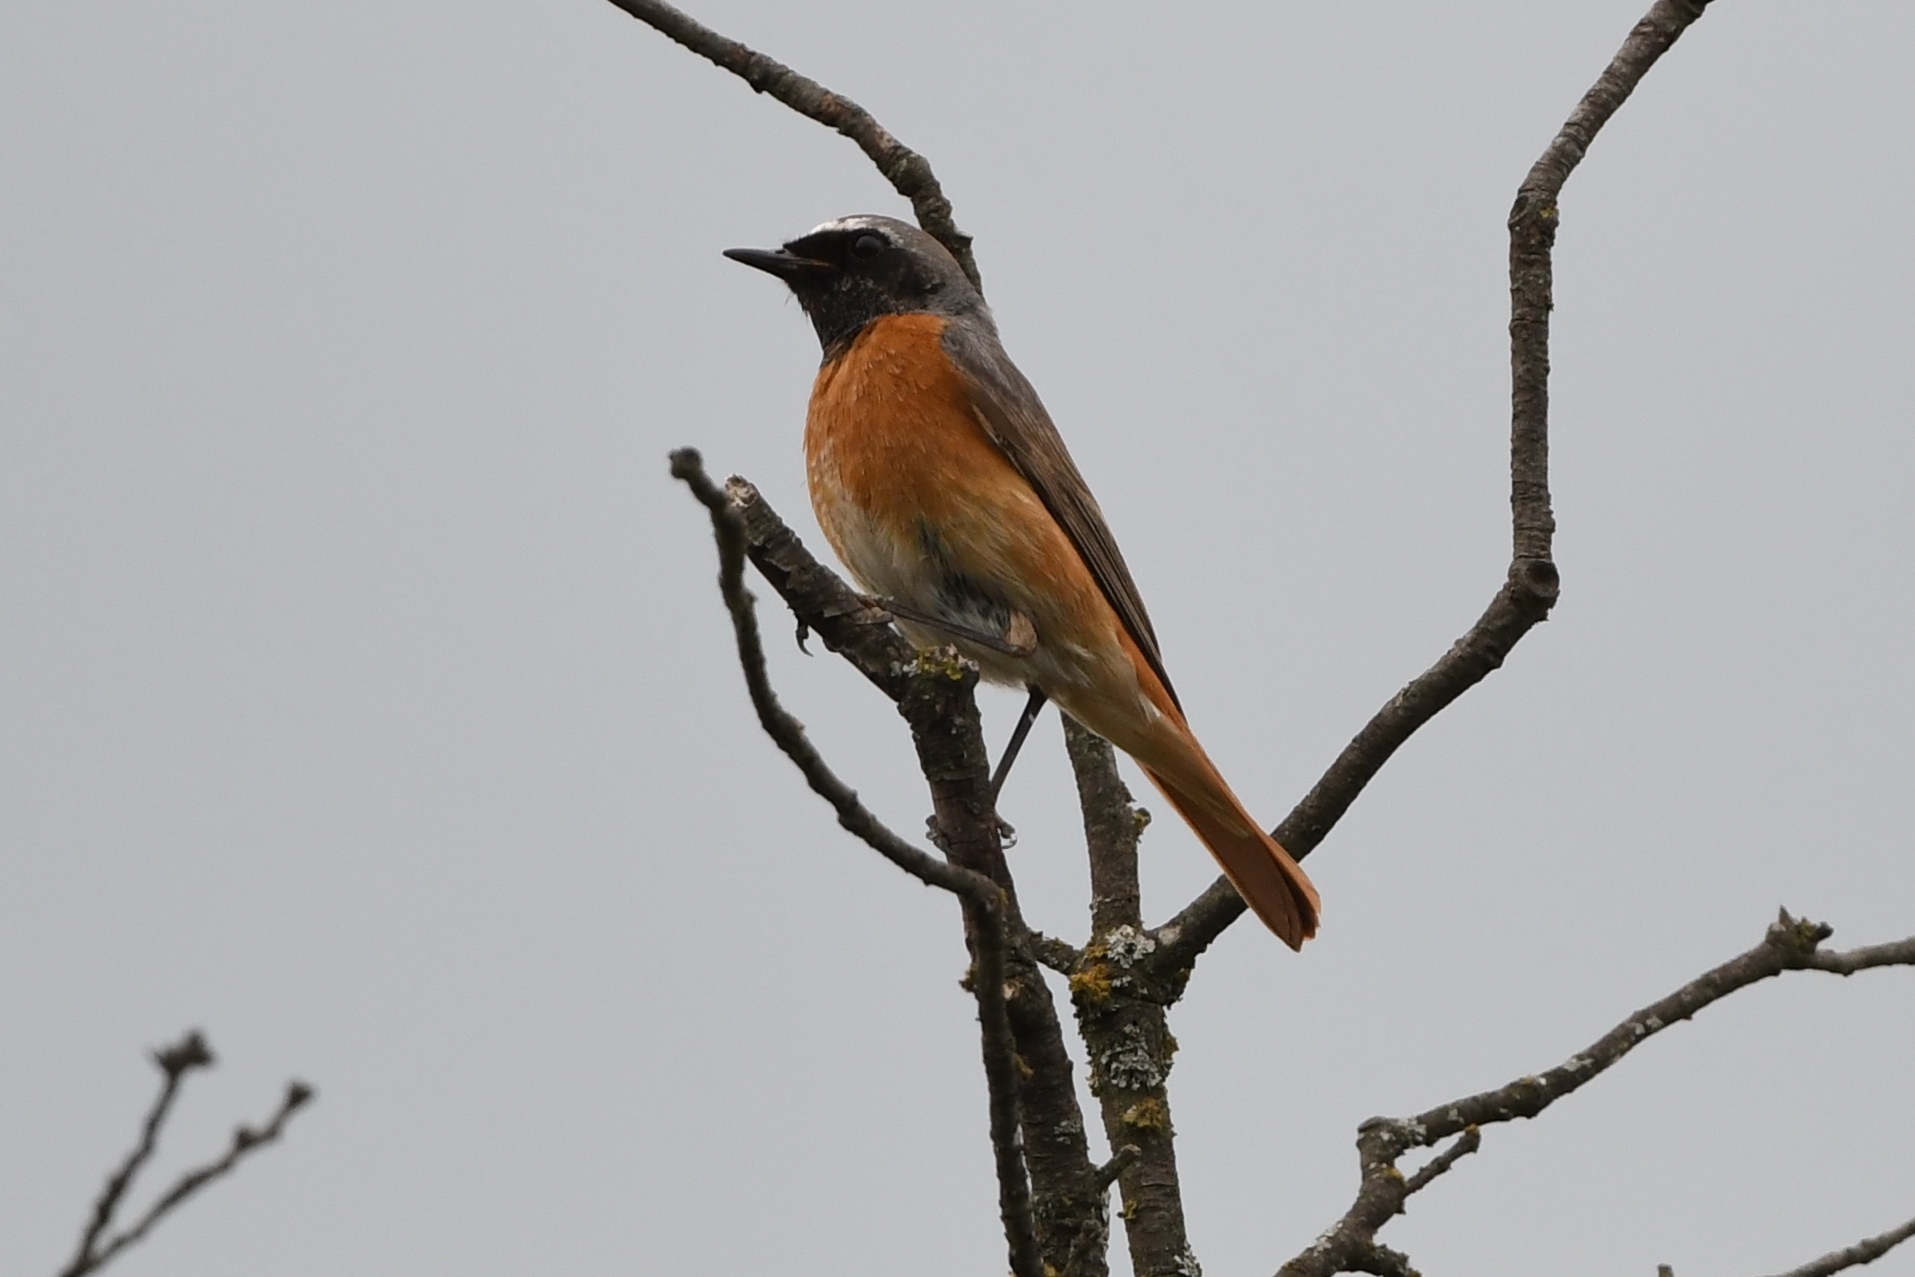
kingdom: Animalia
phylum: Chordata
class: Aves
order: Passeriformes
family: Muscicapidae
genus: Phoenicurus
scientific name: Phoenicurus phoenicurus
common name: Common redstart
